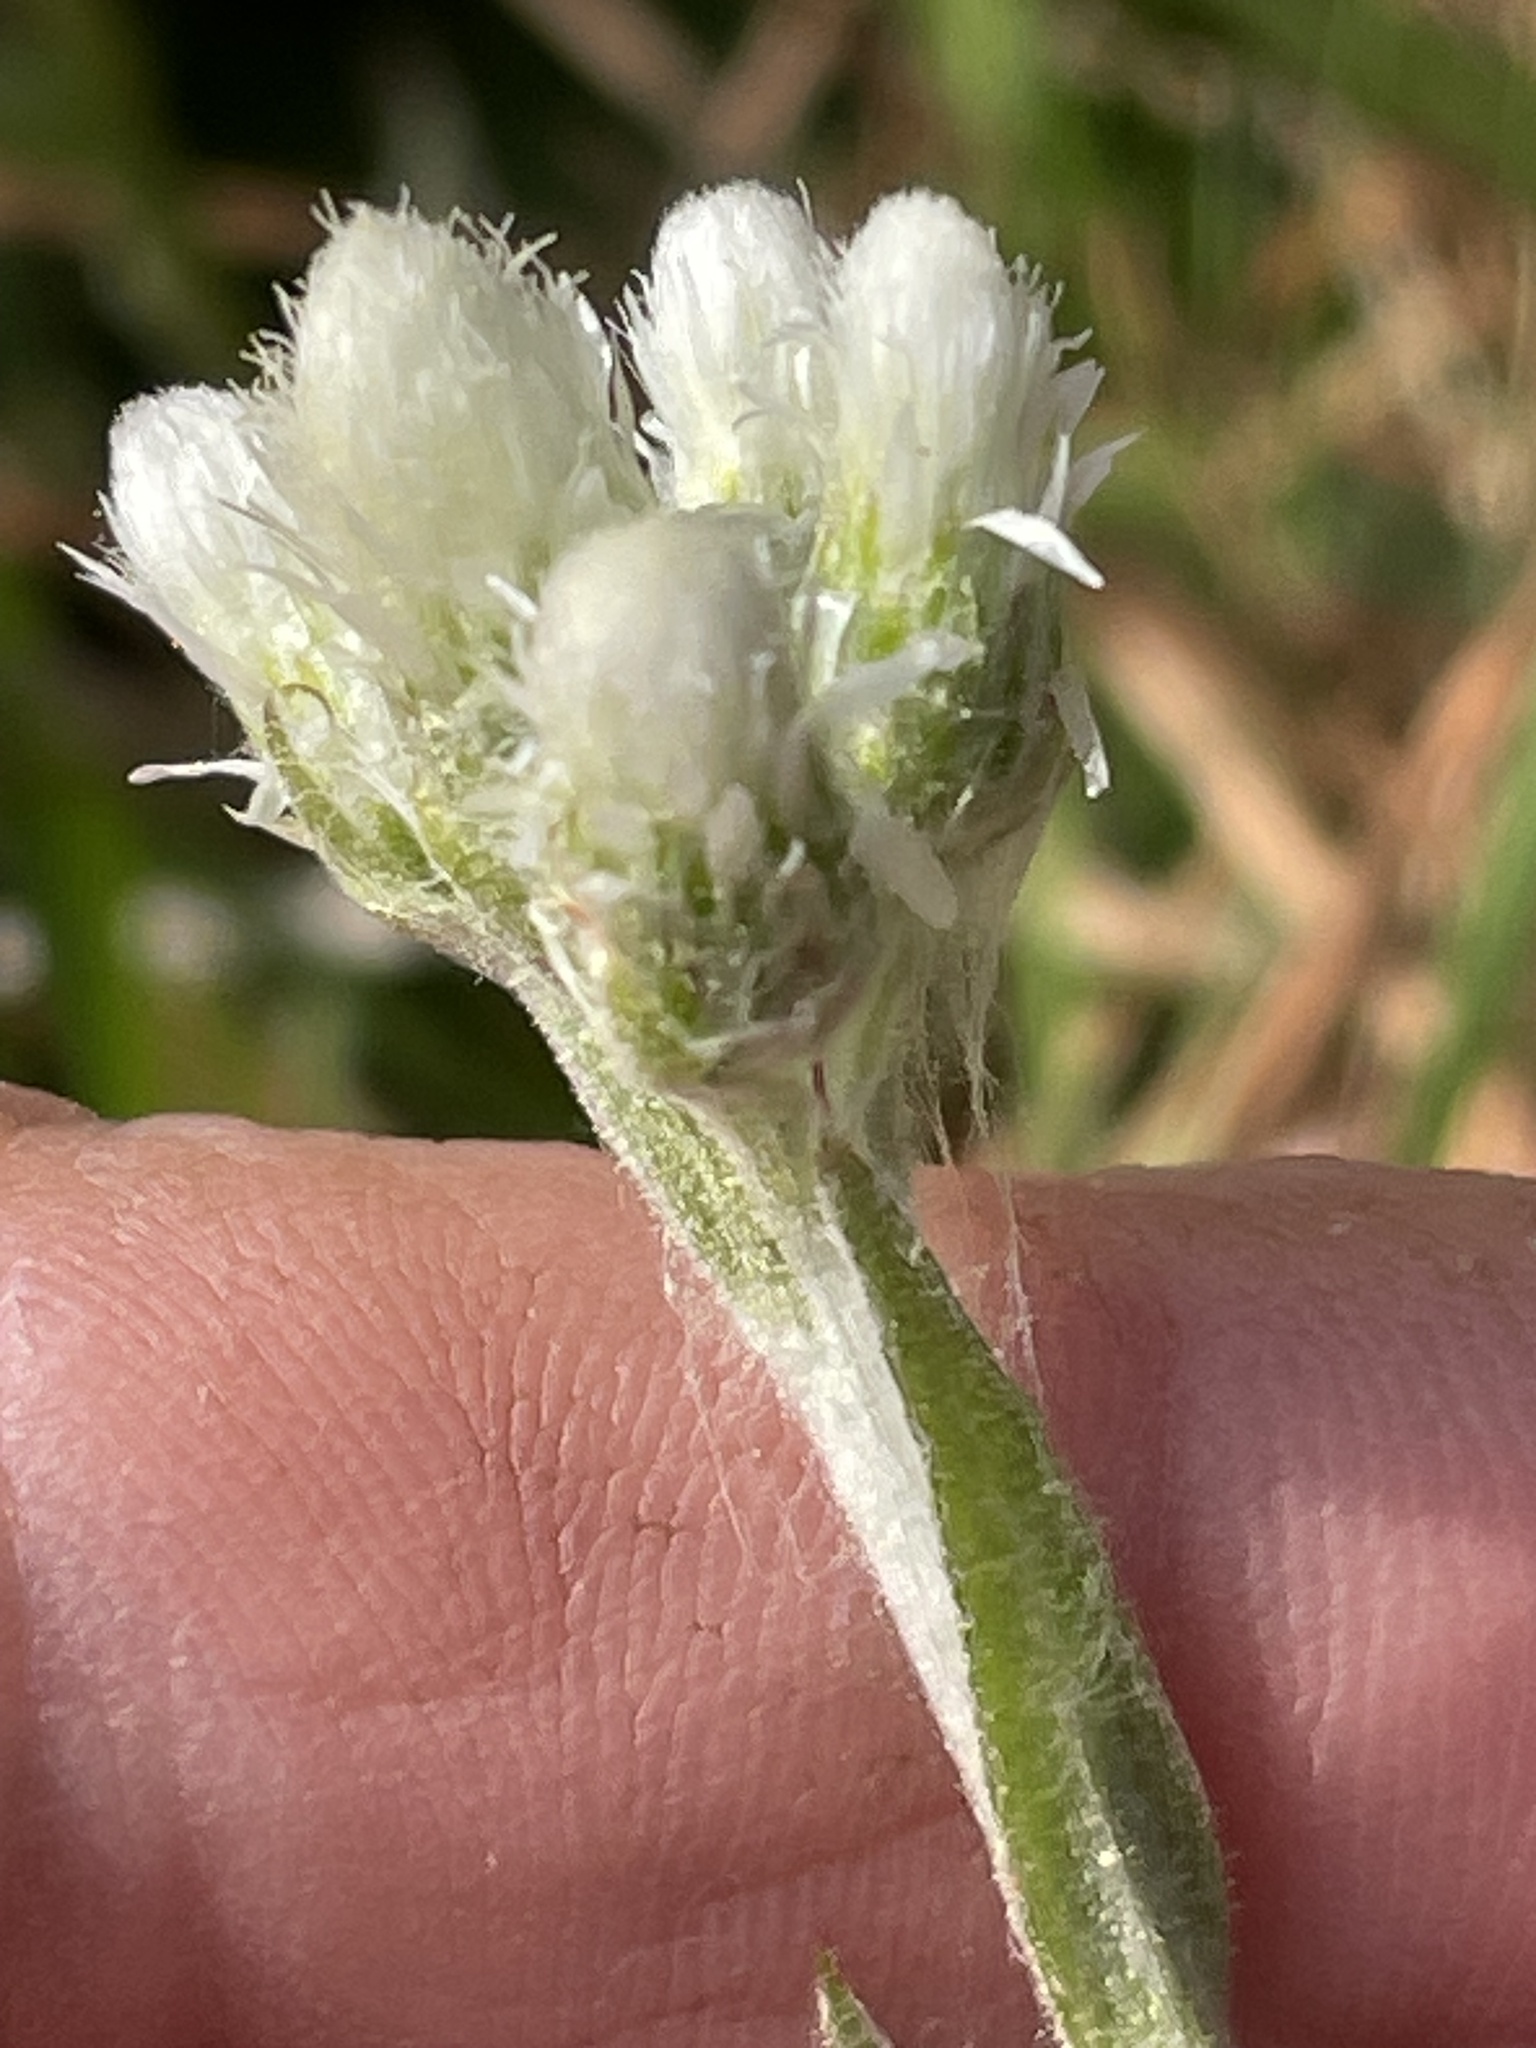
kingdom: Plantae
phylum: Tracheophyta
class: Magnoliopsida
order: Asterales
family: Asteraceae
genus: Antennaria
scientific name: Antennaria parlinii
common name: Parlin's pussytoes
